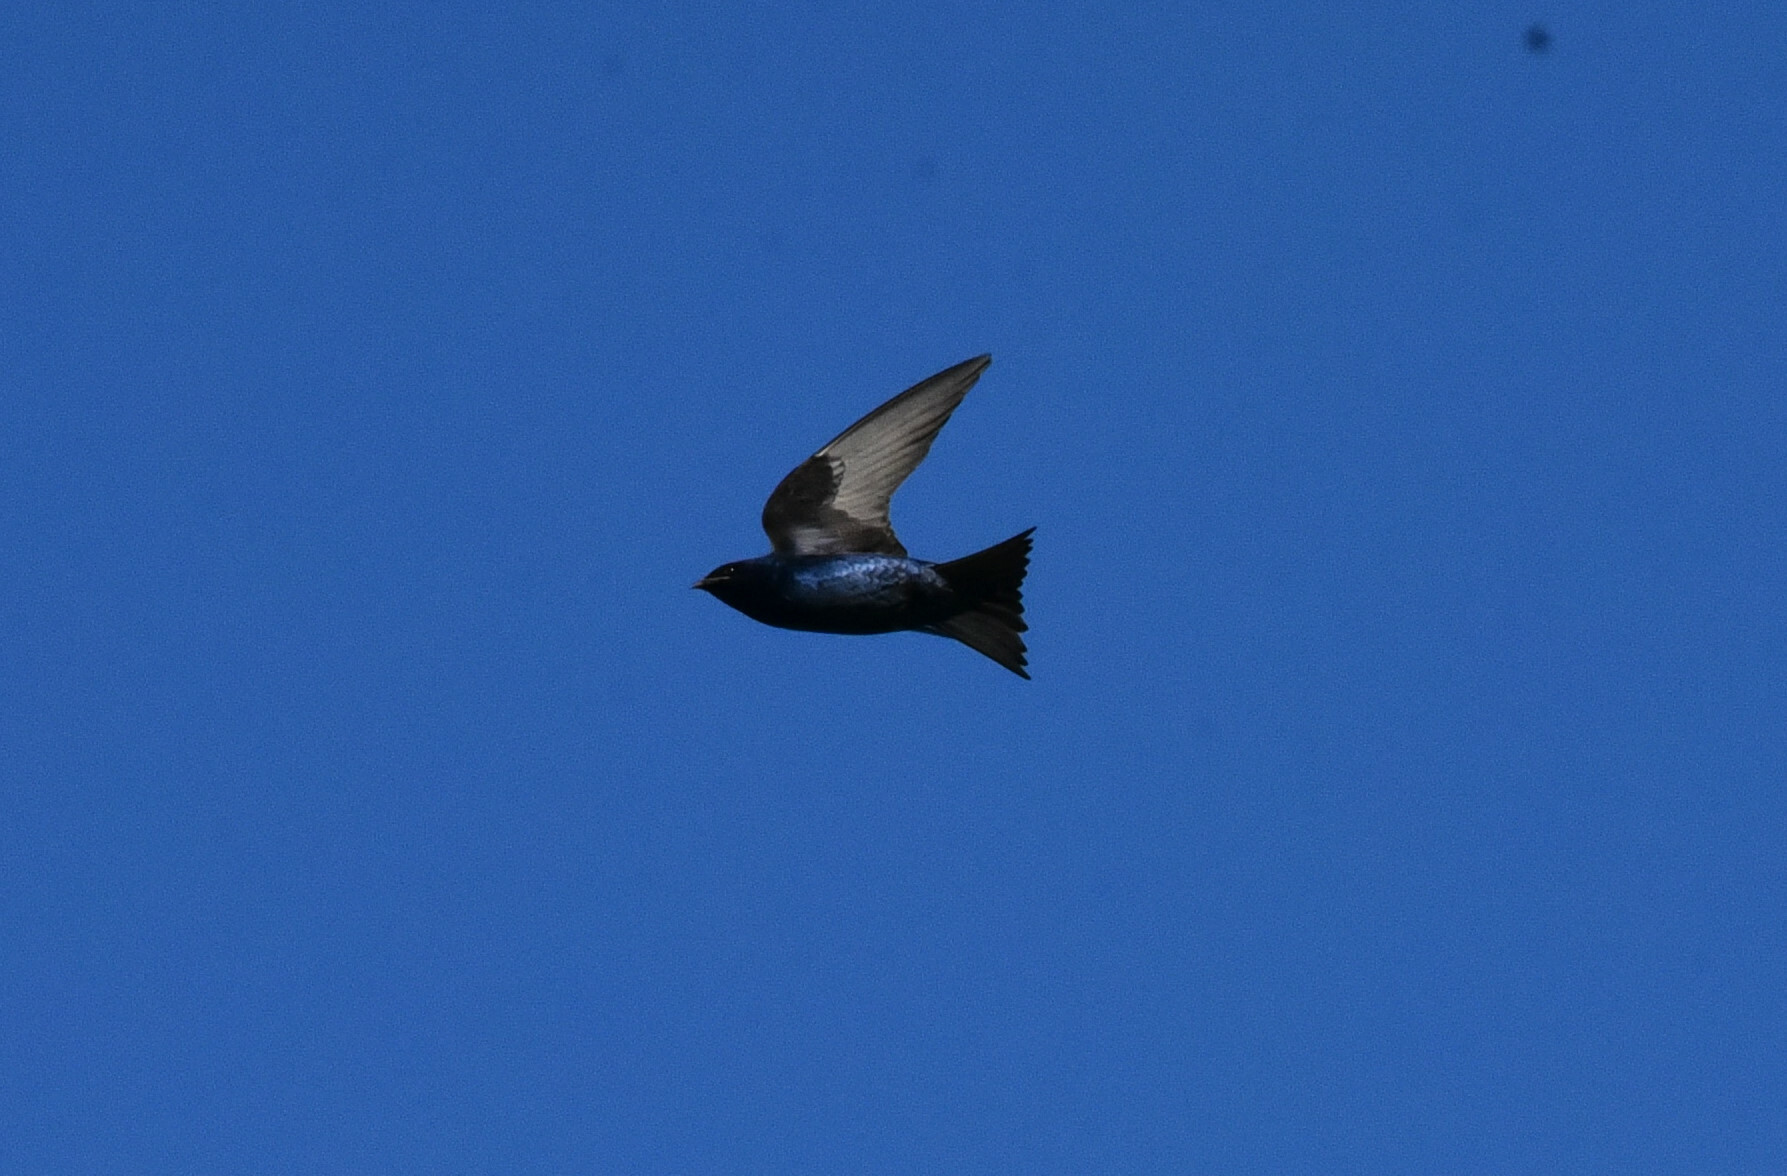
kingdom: Animalia
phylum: Chordata
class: Aves
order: Passeriformes
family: Hirundinidae
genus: Progne
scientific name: Progne subis
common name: Purple martin
